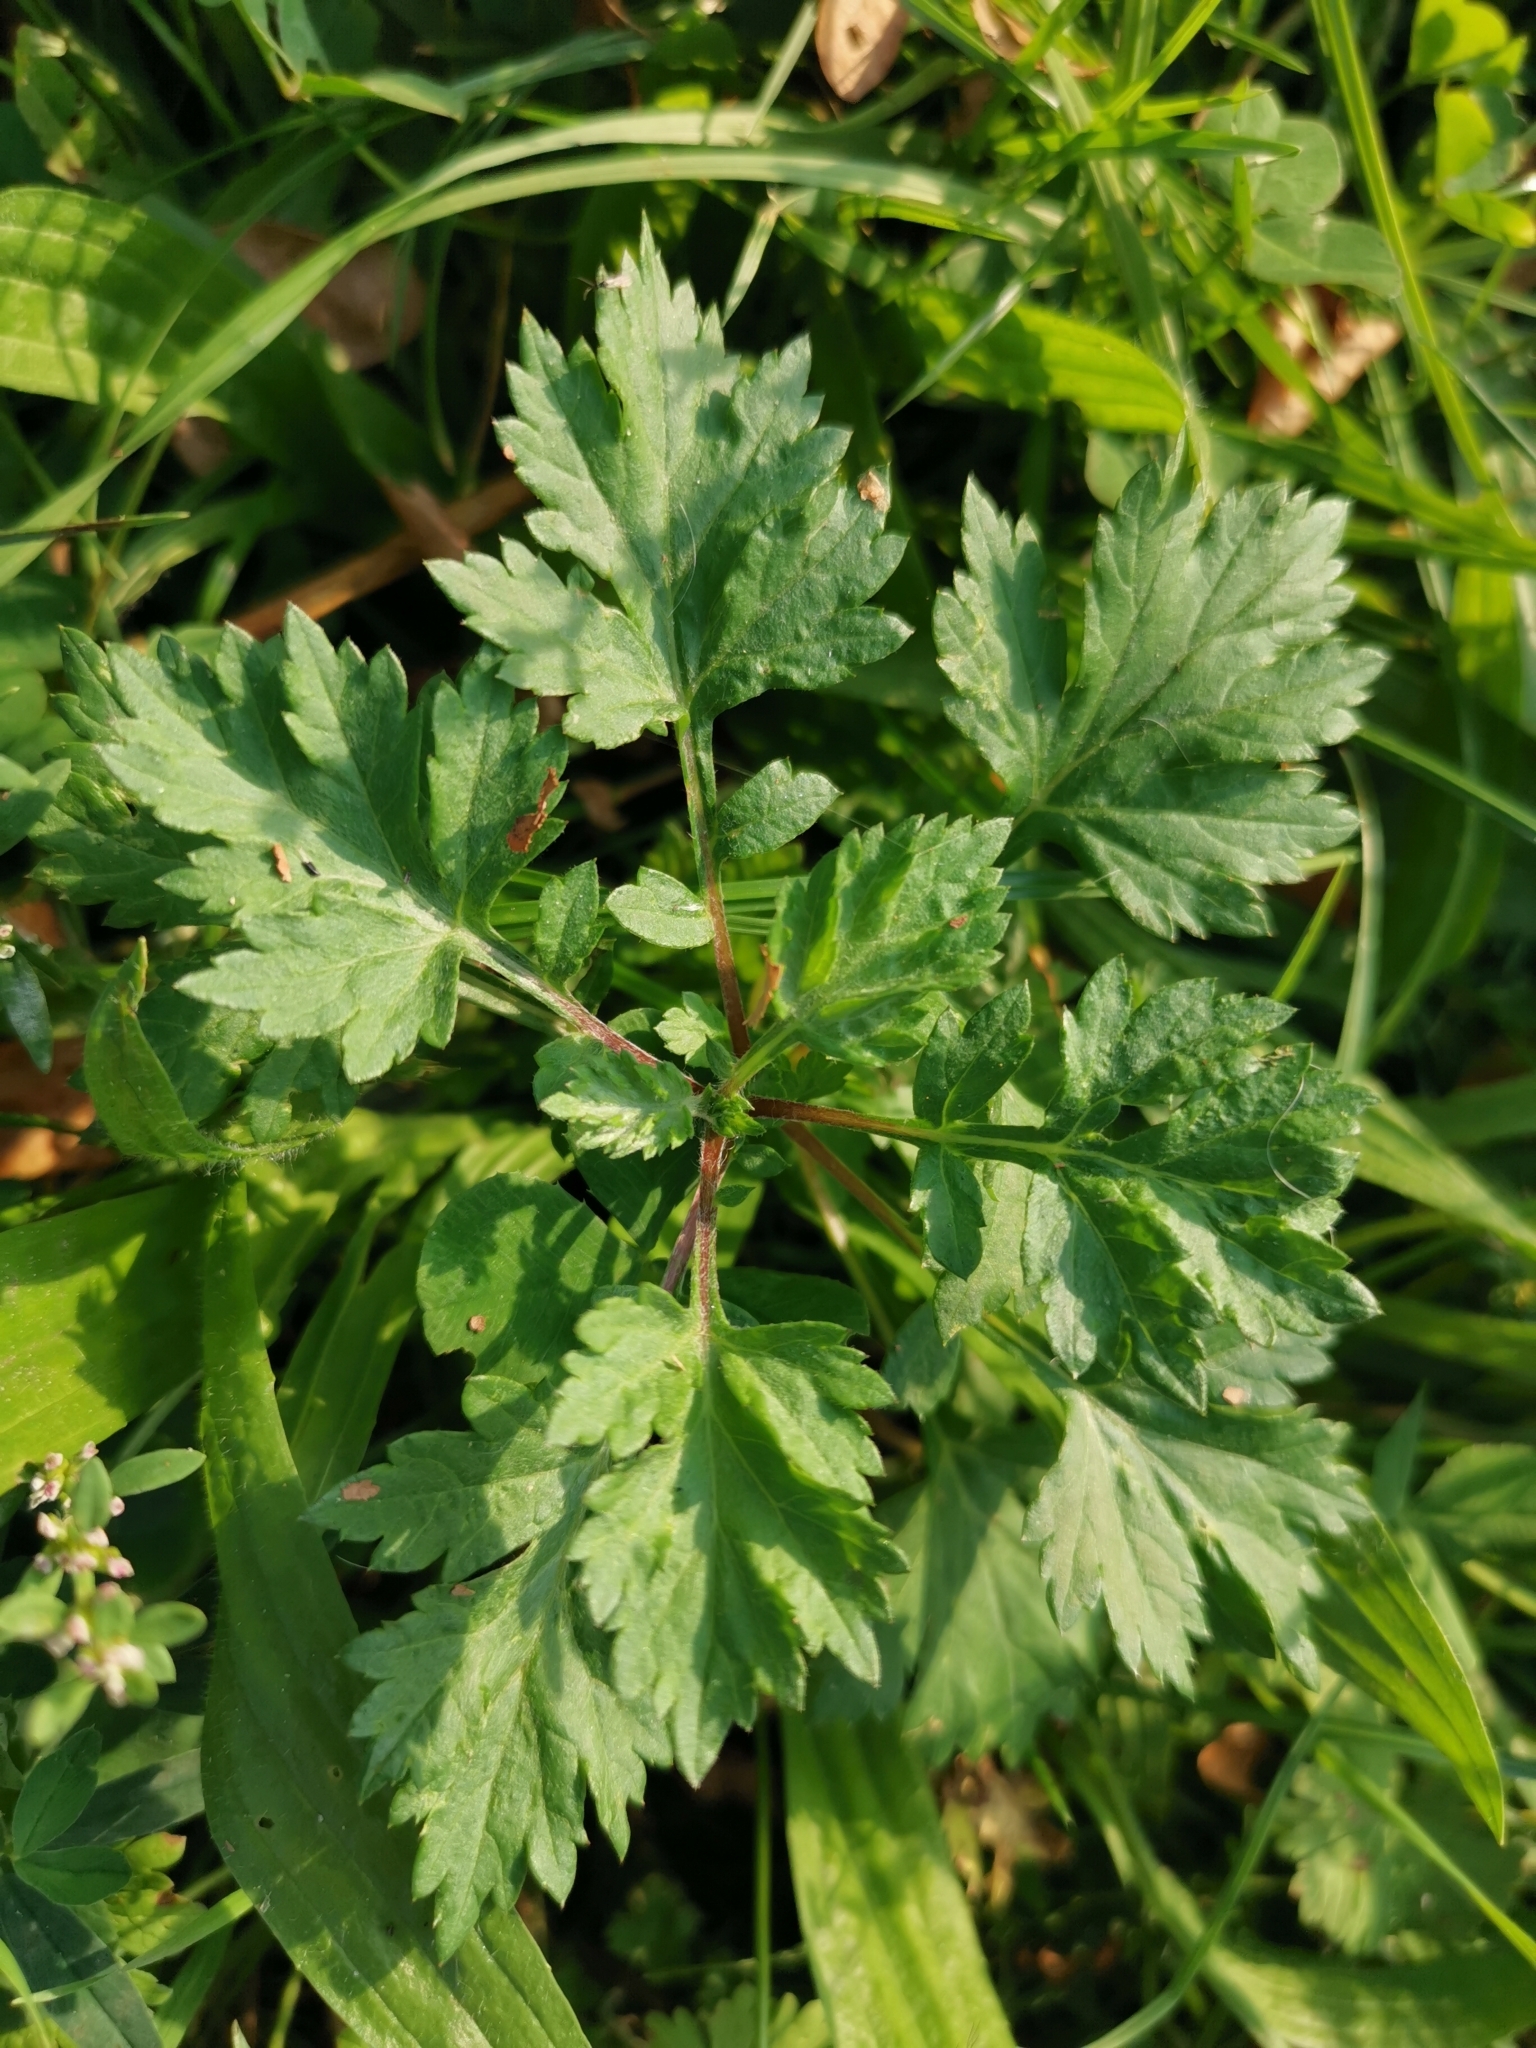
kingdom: Plantae
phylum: Tracheophyta
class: Magnoliopsida
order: Asterales
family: Asteraceae
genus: Artemisia
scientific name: Artemisia vulgaris
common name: Mugwort
